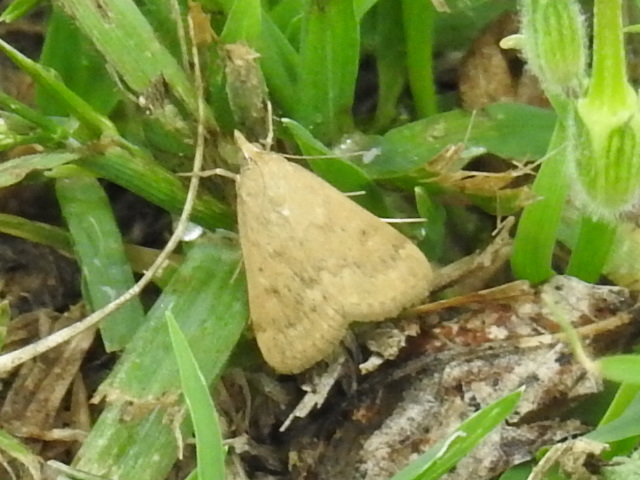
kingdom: Animalia
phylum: Arthropoda
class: Insecta
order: Lepidoptera
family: Crambidae
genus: Achyra
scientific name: Achyra rantalis
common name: Garden webworm
